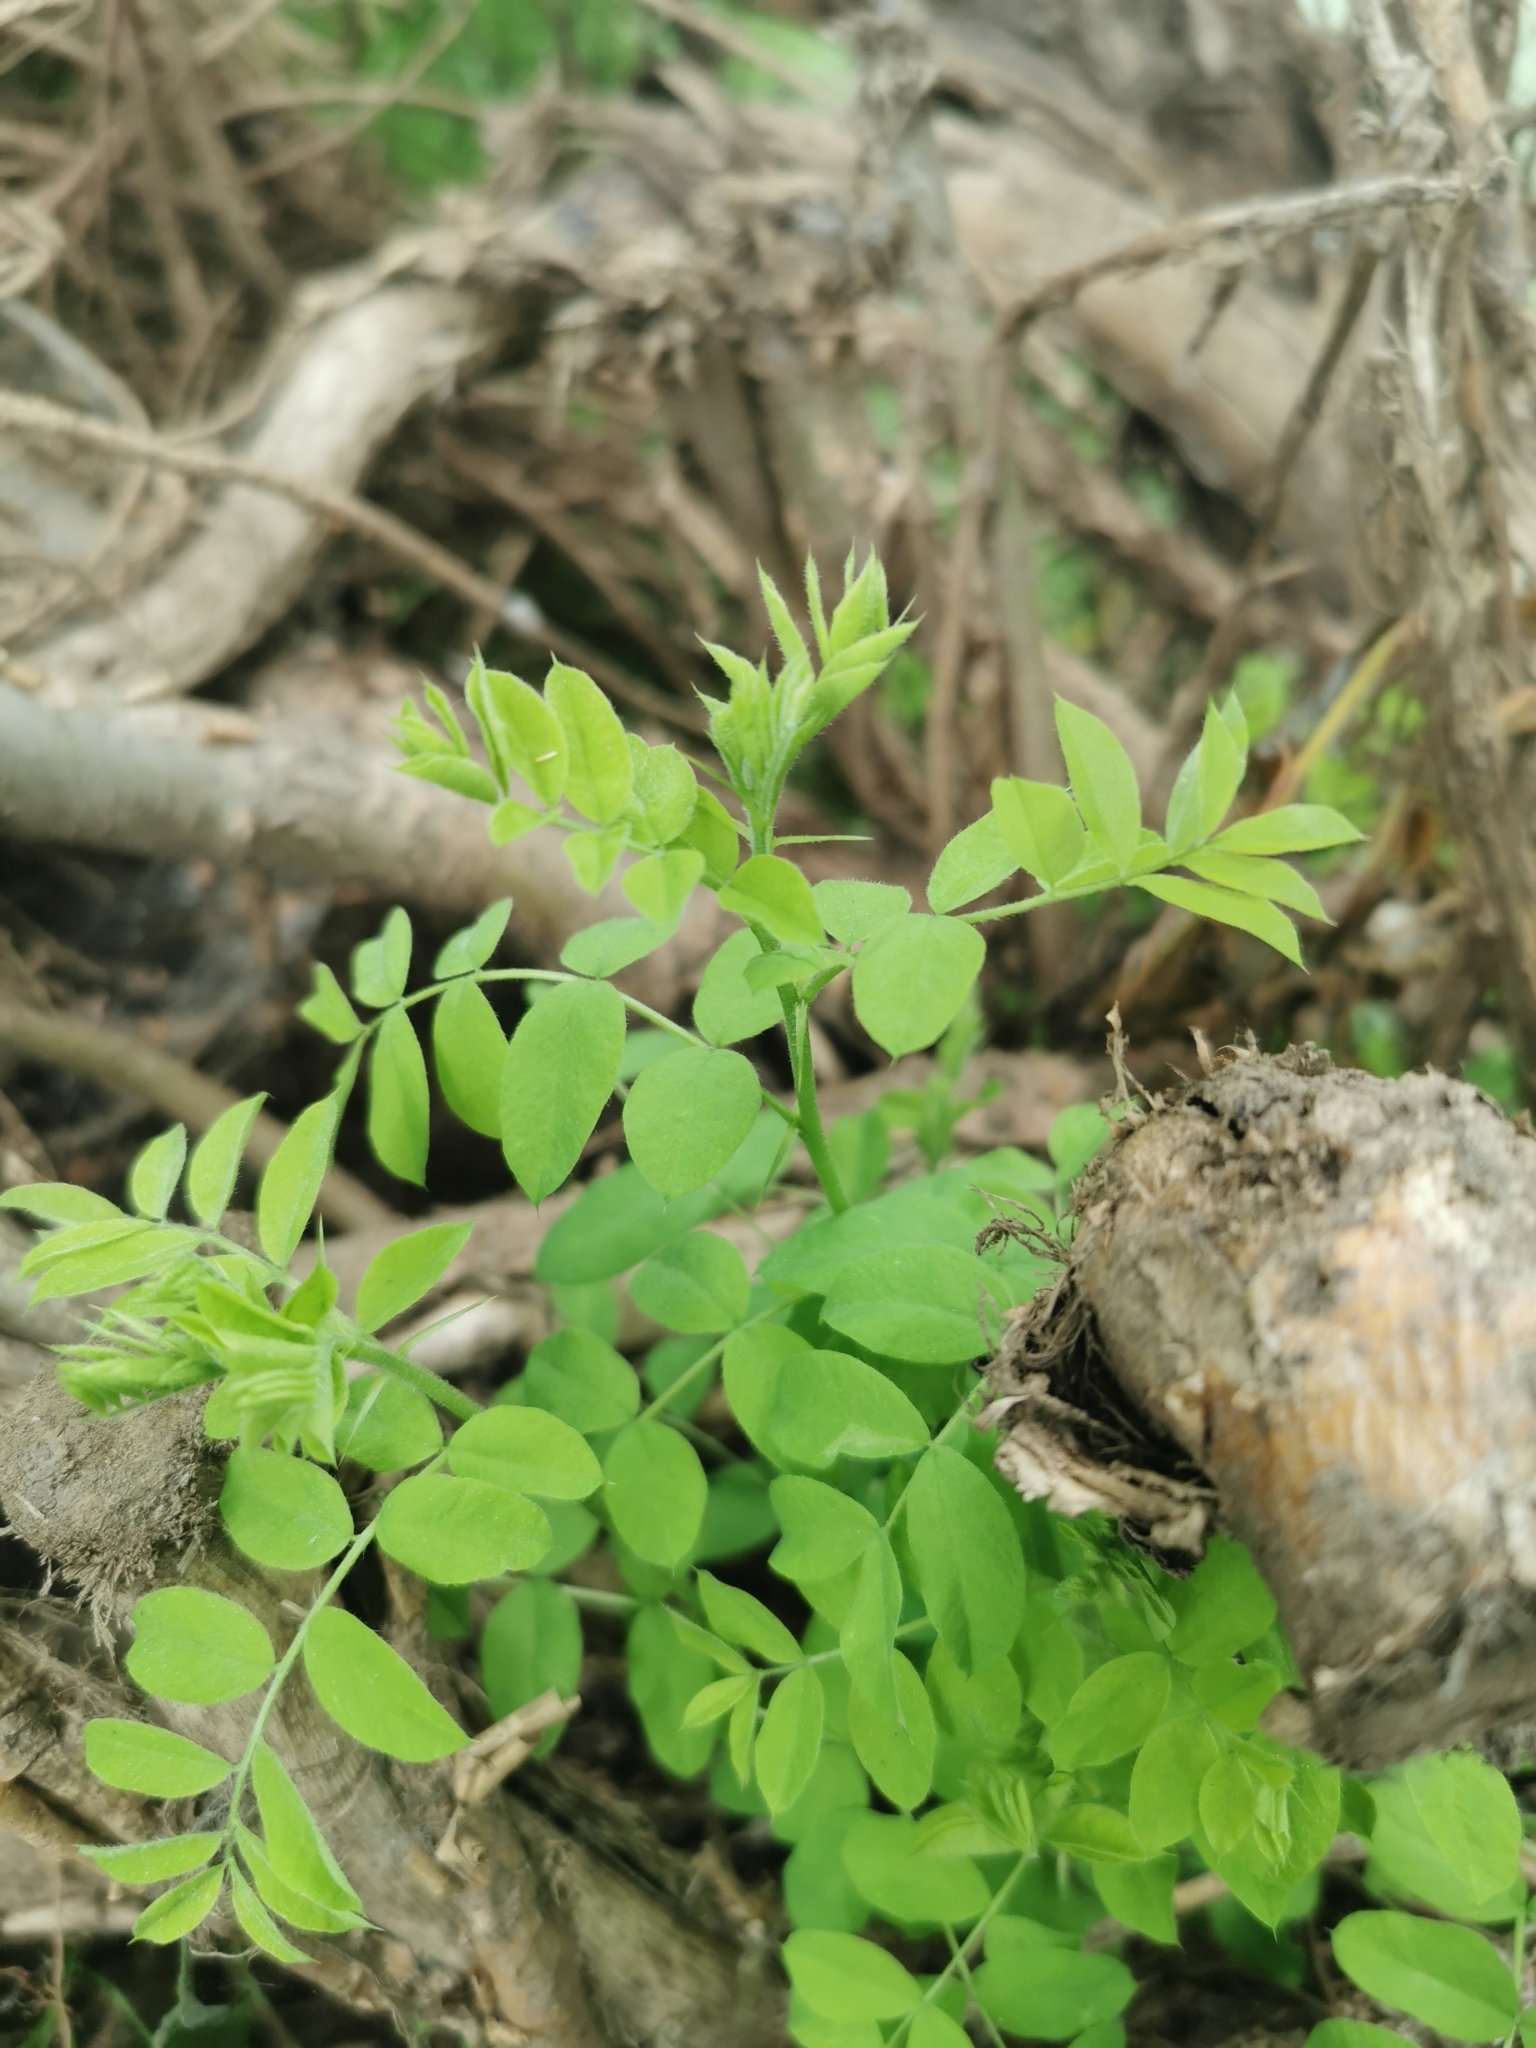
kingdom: Plantae
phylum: Tracheophyta
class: Magnoliopsida
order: Fabales
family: Fabaceae
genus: Caragana
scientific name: Caragana arborescens
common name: Siberian peashrub
